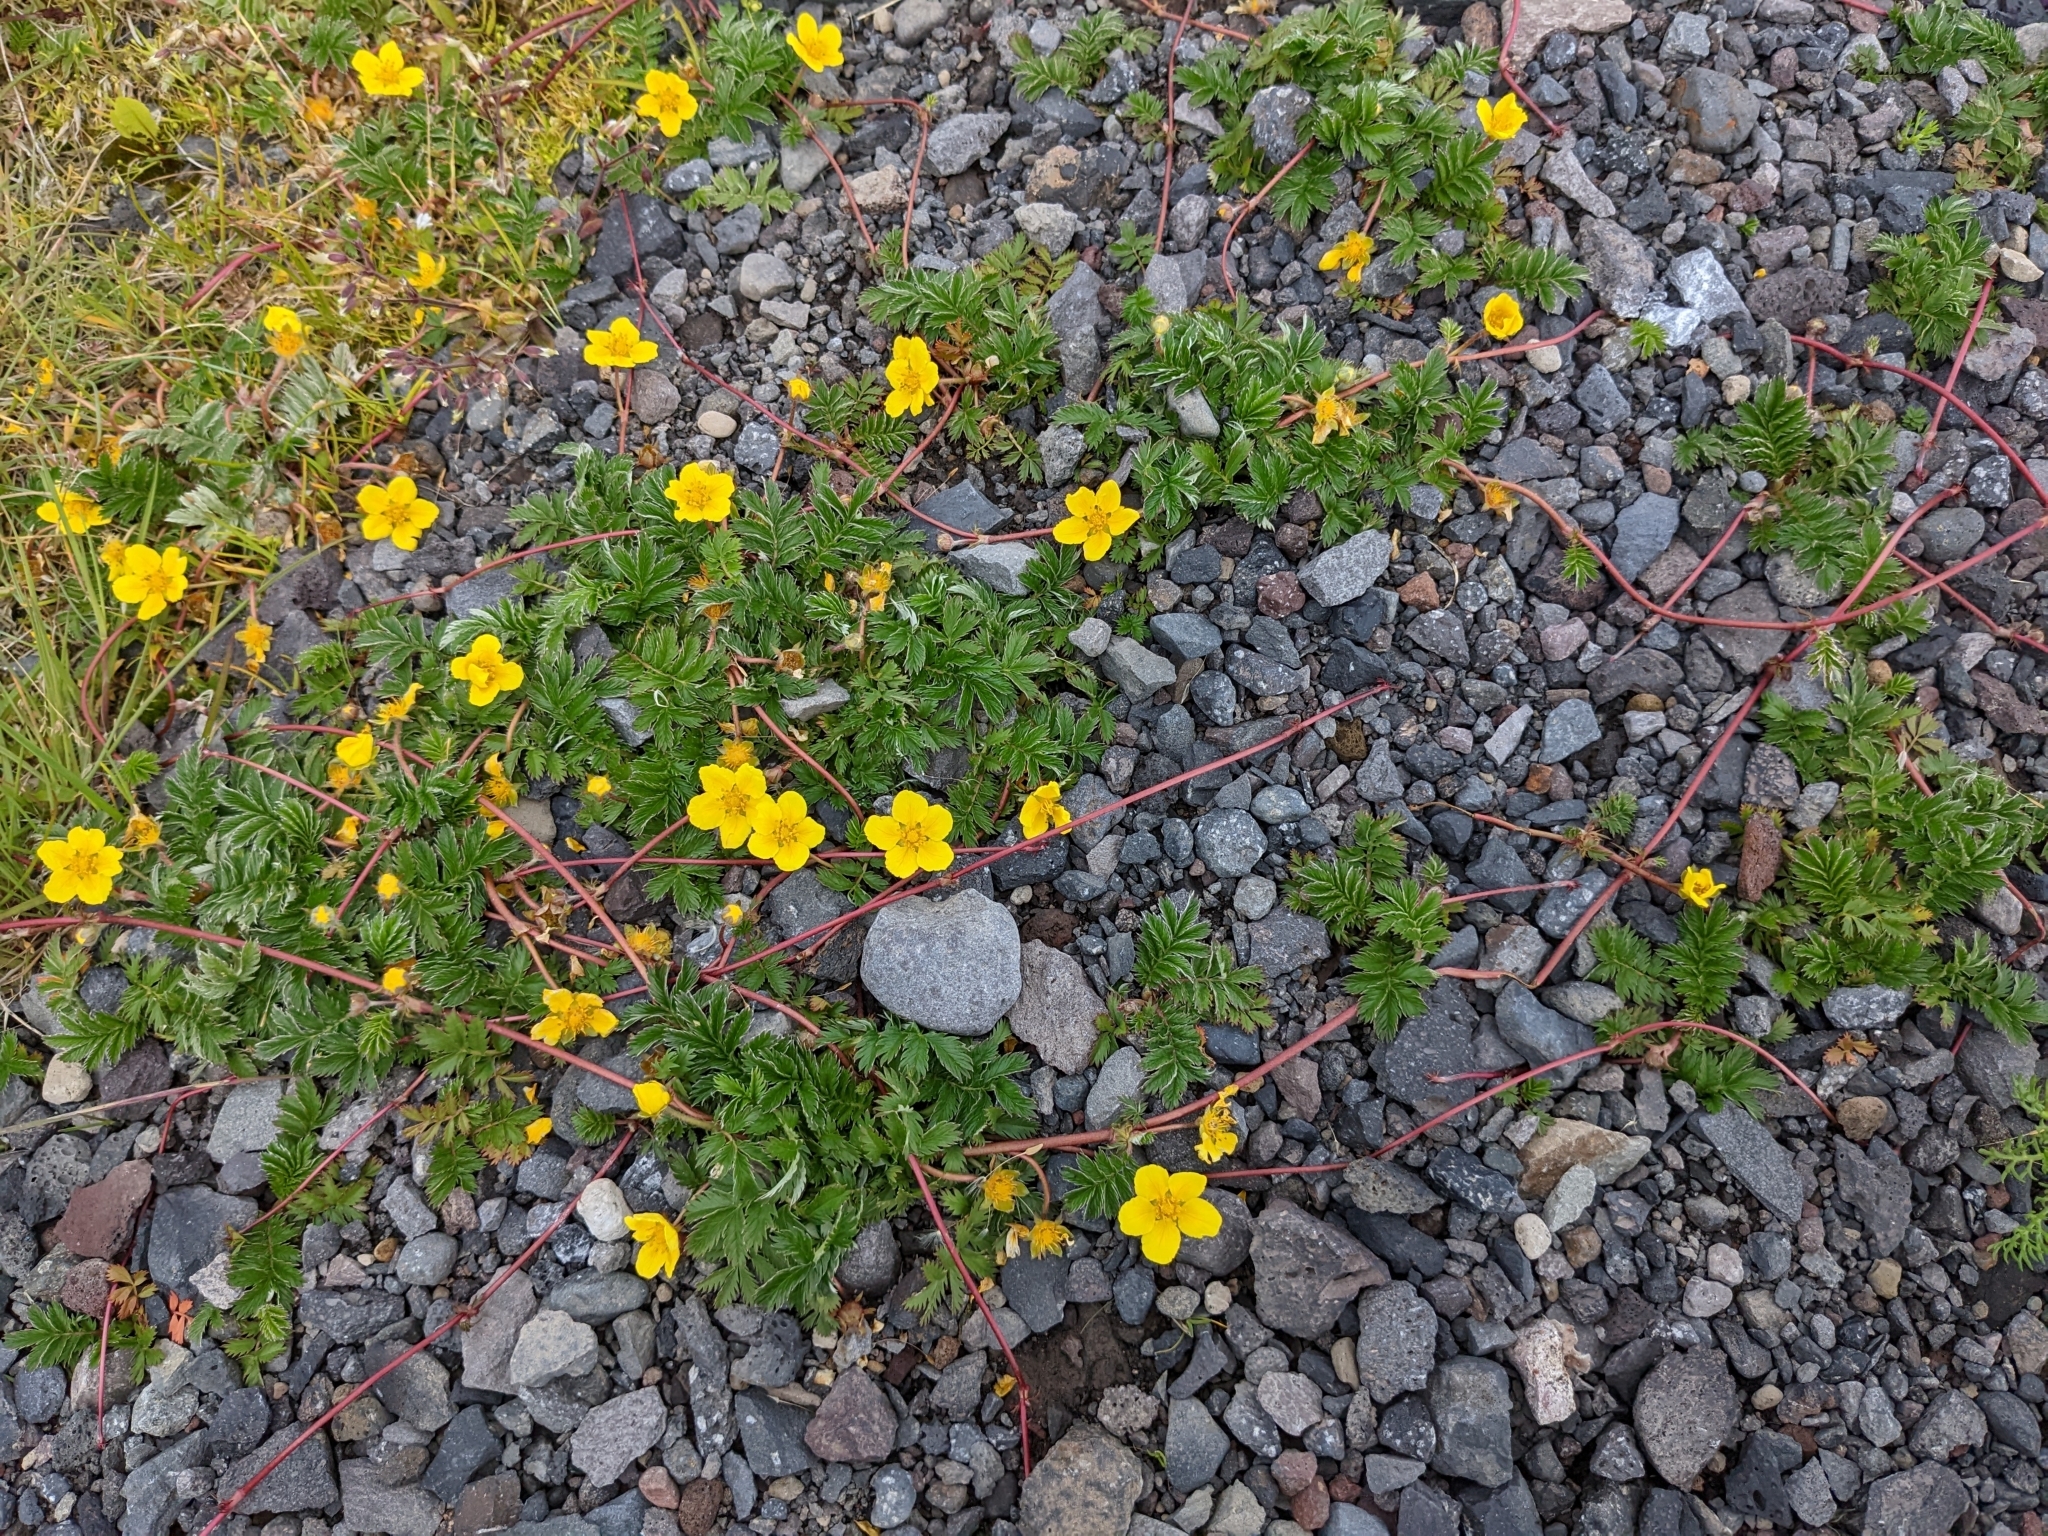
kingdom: Plantae
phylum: Tracheophyta
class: Magnoliopsida
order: Rosales
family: Rosaceae
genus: Argentina
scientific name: Argentina anserina
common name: Common silverweed
